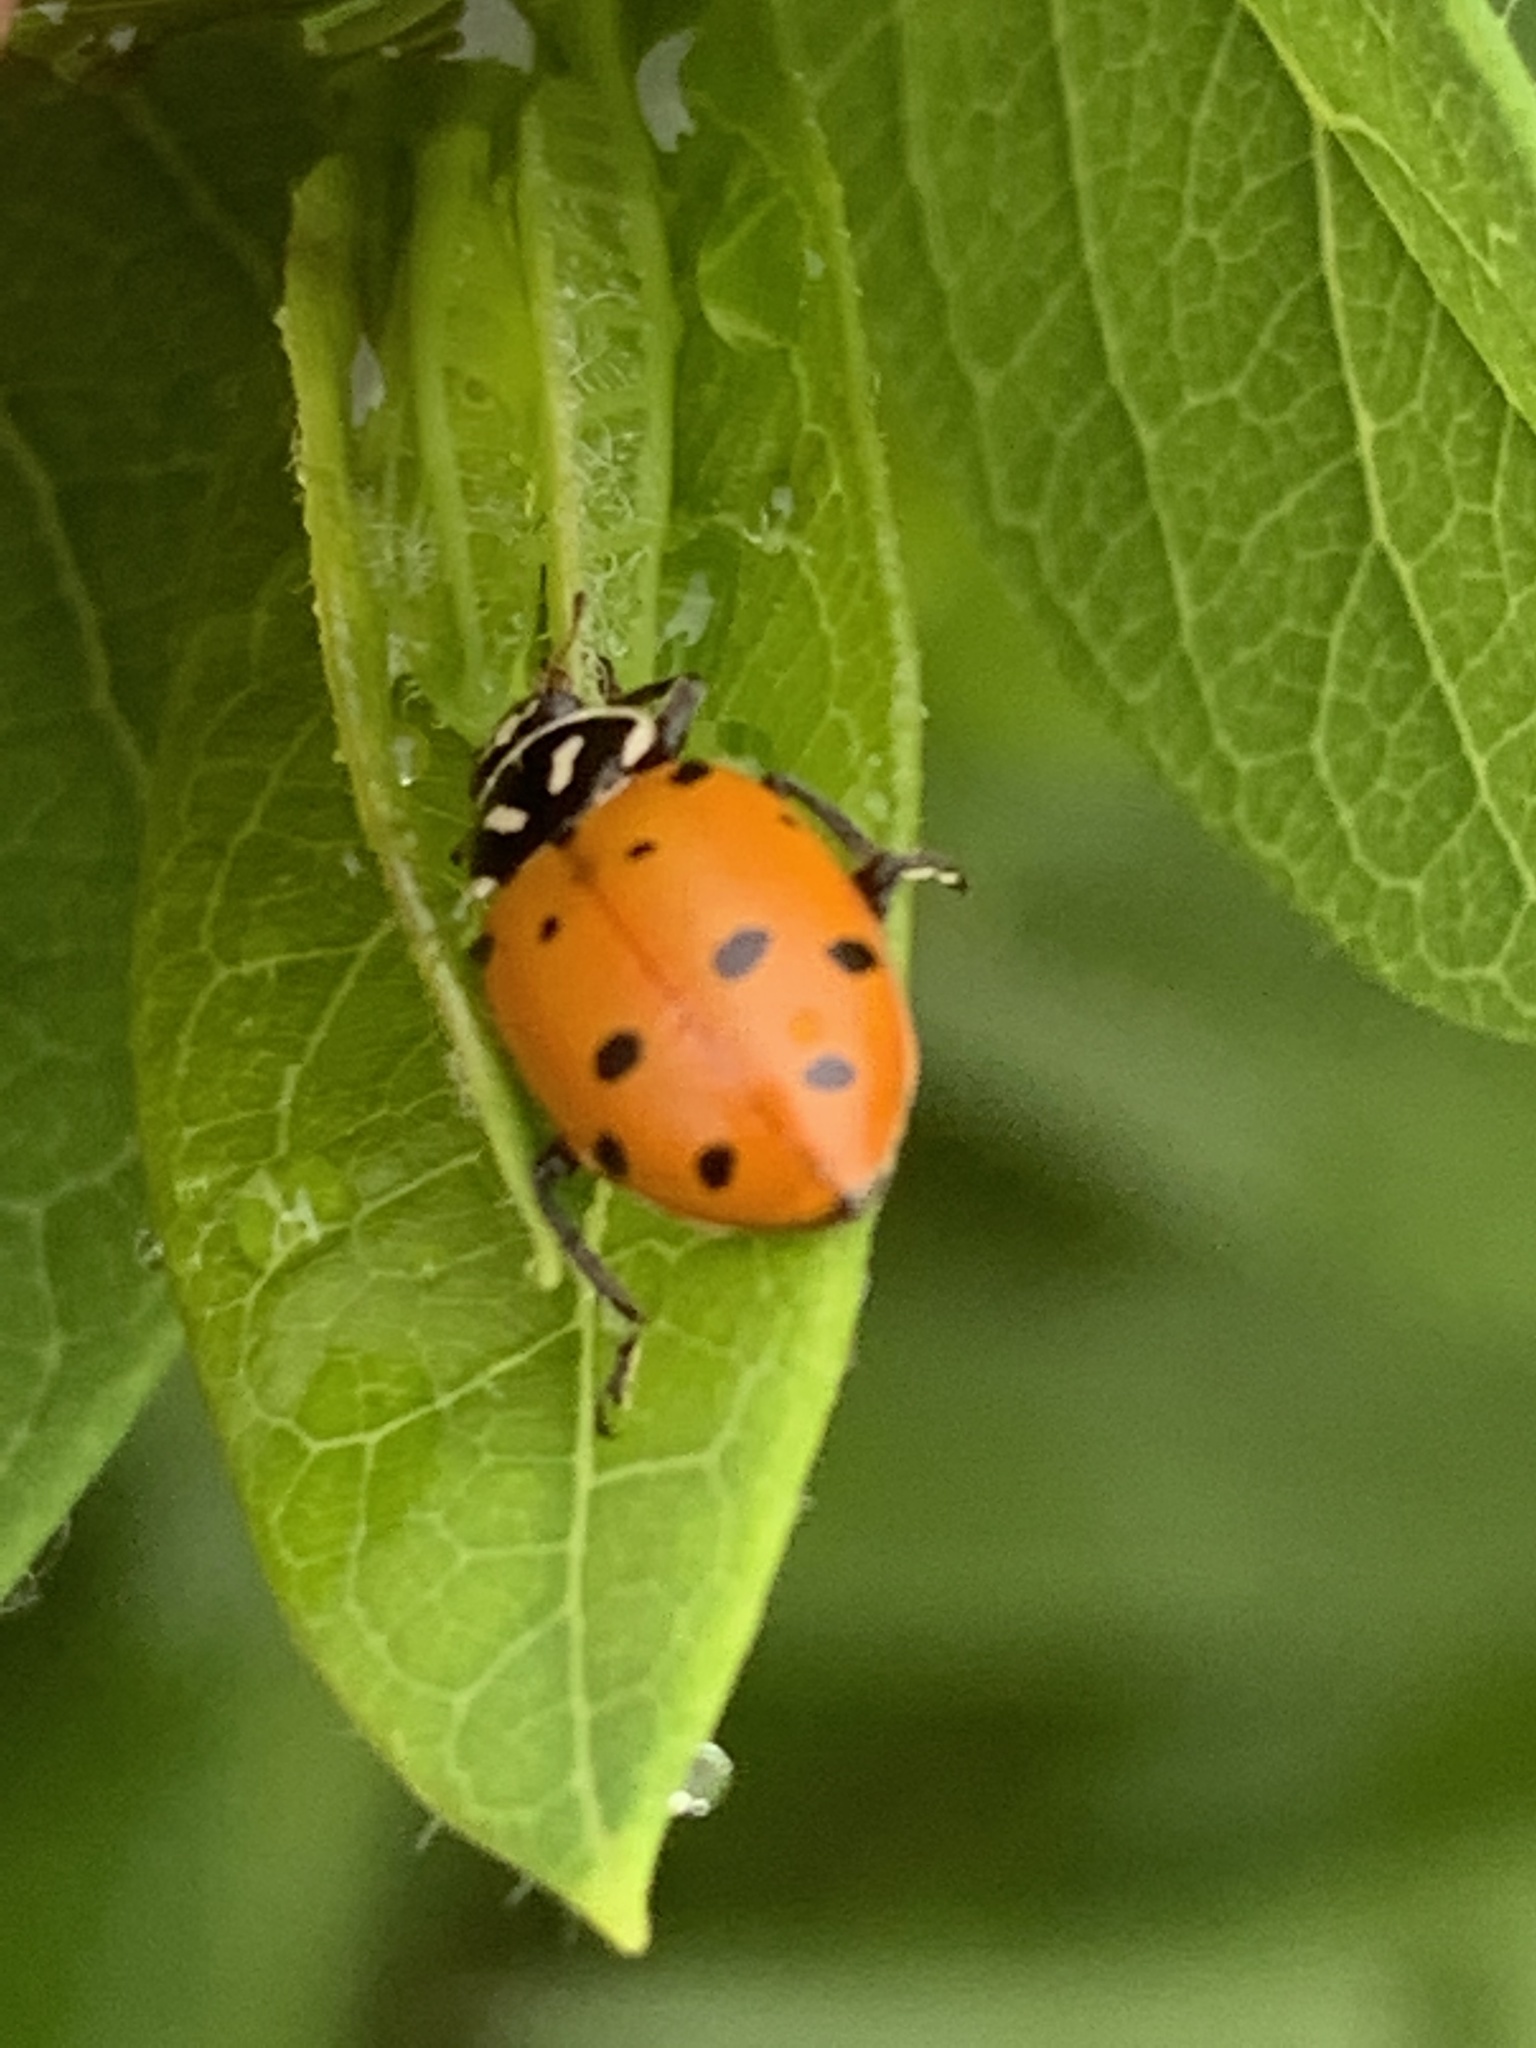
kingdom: Animalia
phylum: Arthropoda
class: Insecta
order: Coleoptera
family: Coccinellidae
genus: Hippodamia
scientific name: Hippodamia convergens
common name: Convergent lady beetle
